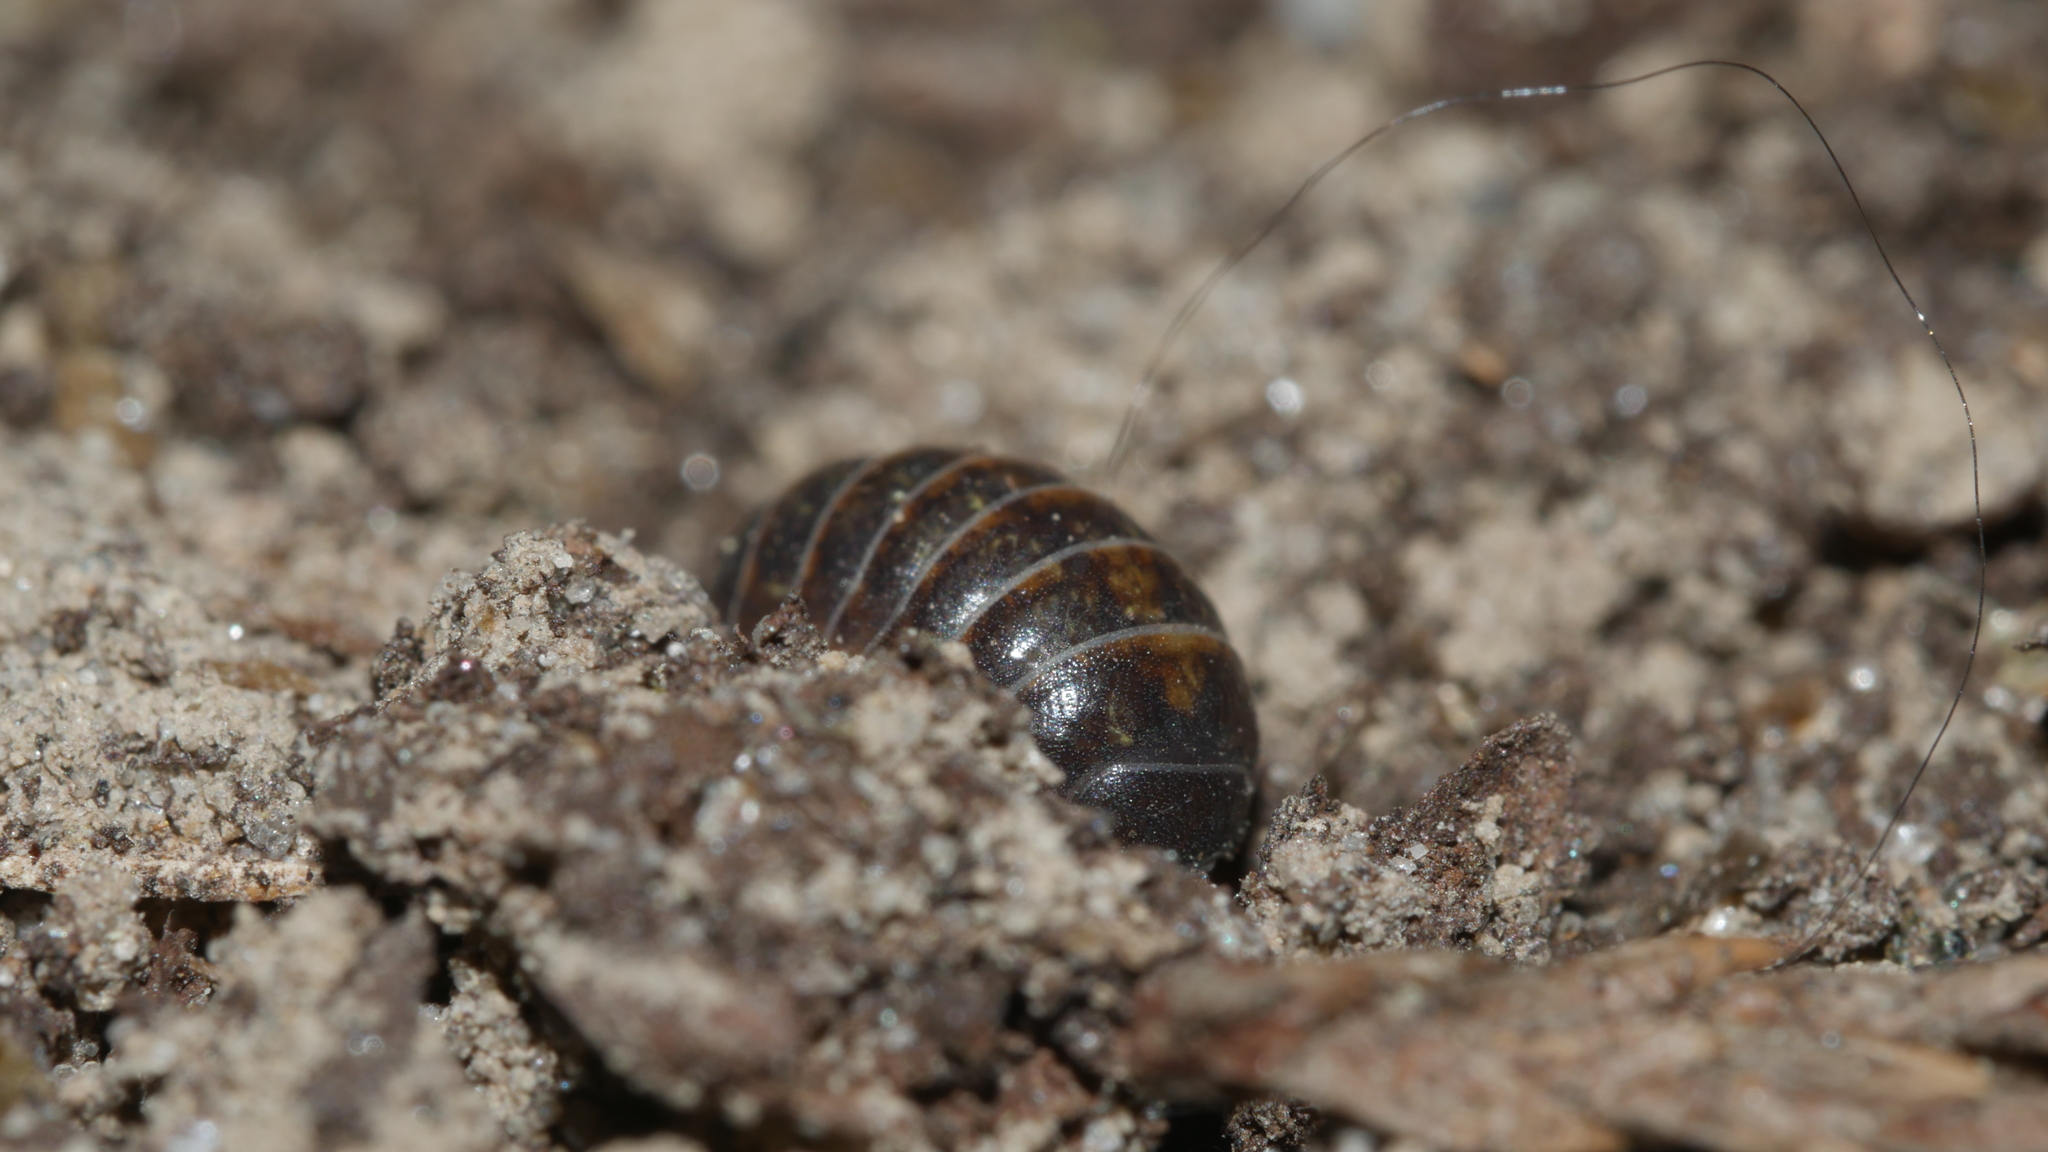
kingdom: Animalia
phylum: Arthropoda
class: Malacostraca
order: Isopoda
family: Armadillidiidae
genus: Armadillidium
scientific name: Armadillidium vulgare
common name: Common pill woodlouse
